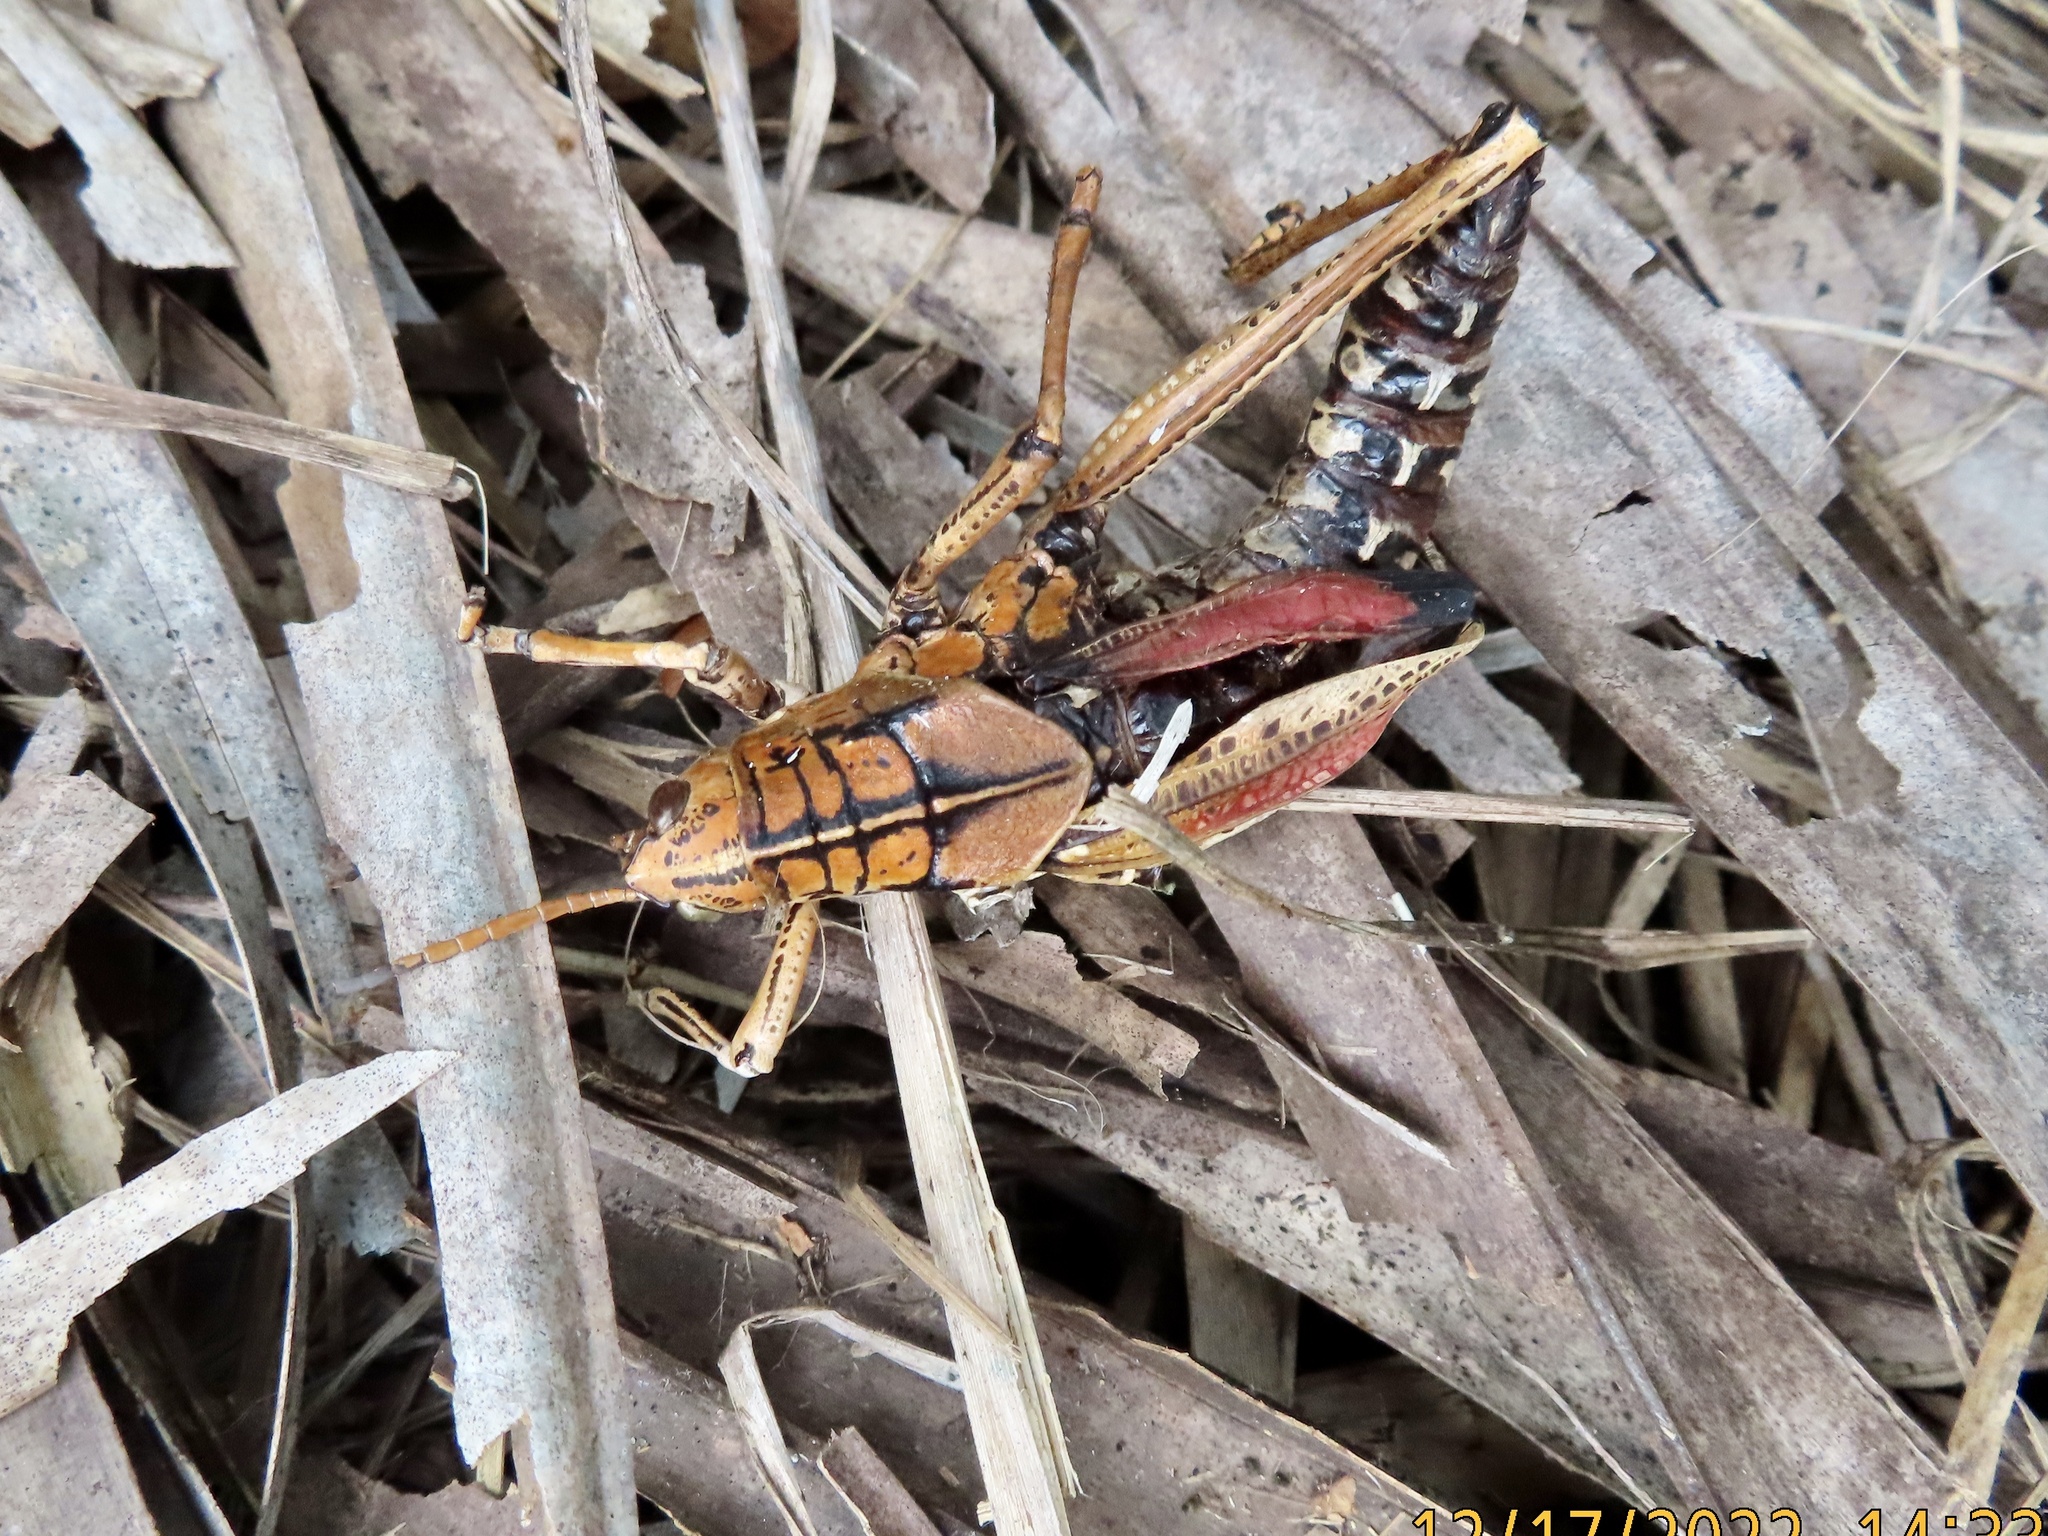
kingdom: Animalia
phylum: Arthropoda
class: Insecta
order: Orthoptera
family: Romaleidae
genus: Romalea
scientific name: Romalea microptera
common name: Eastern lubber grasshopper
